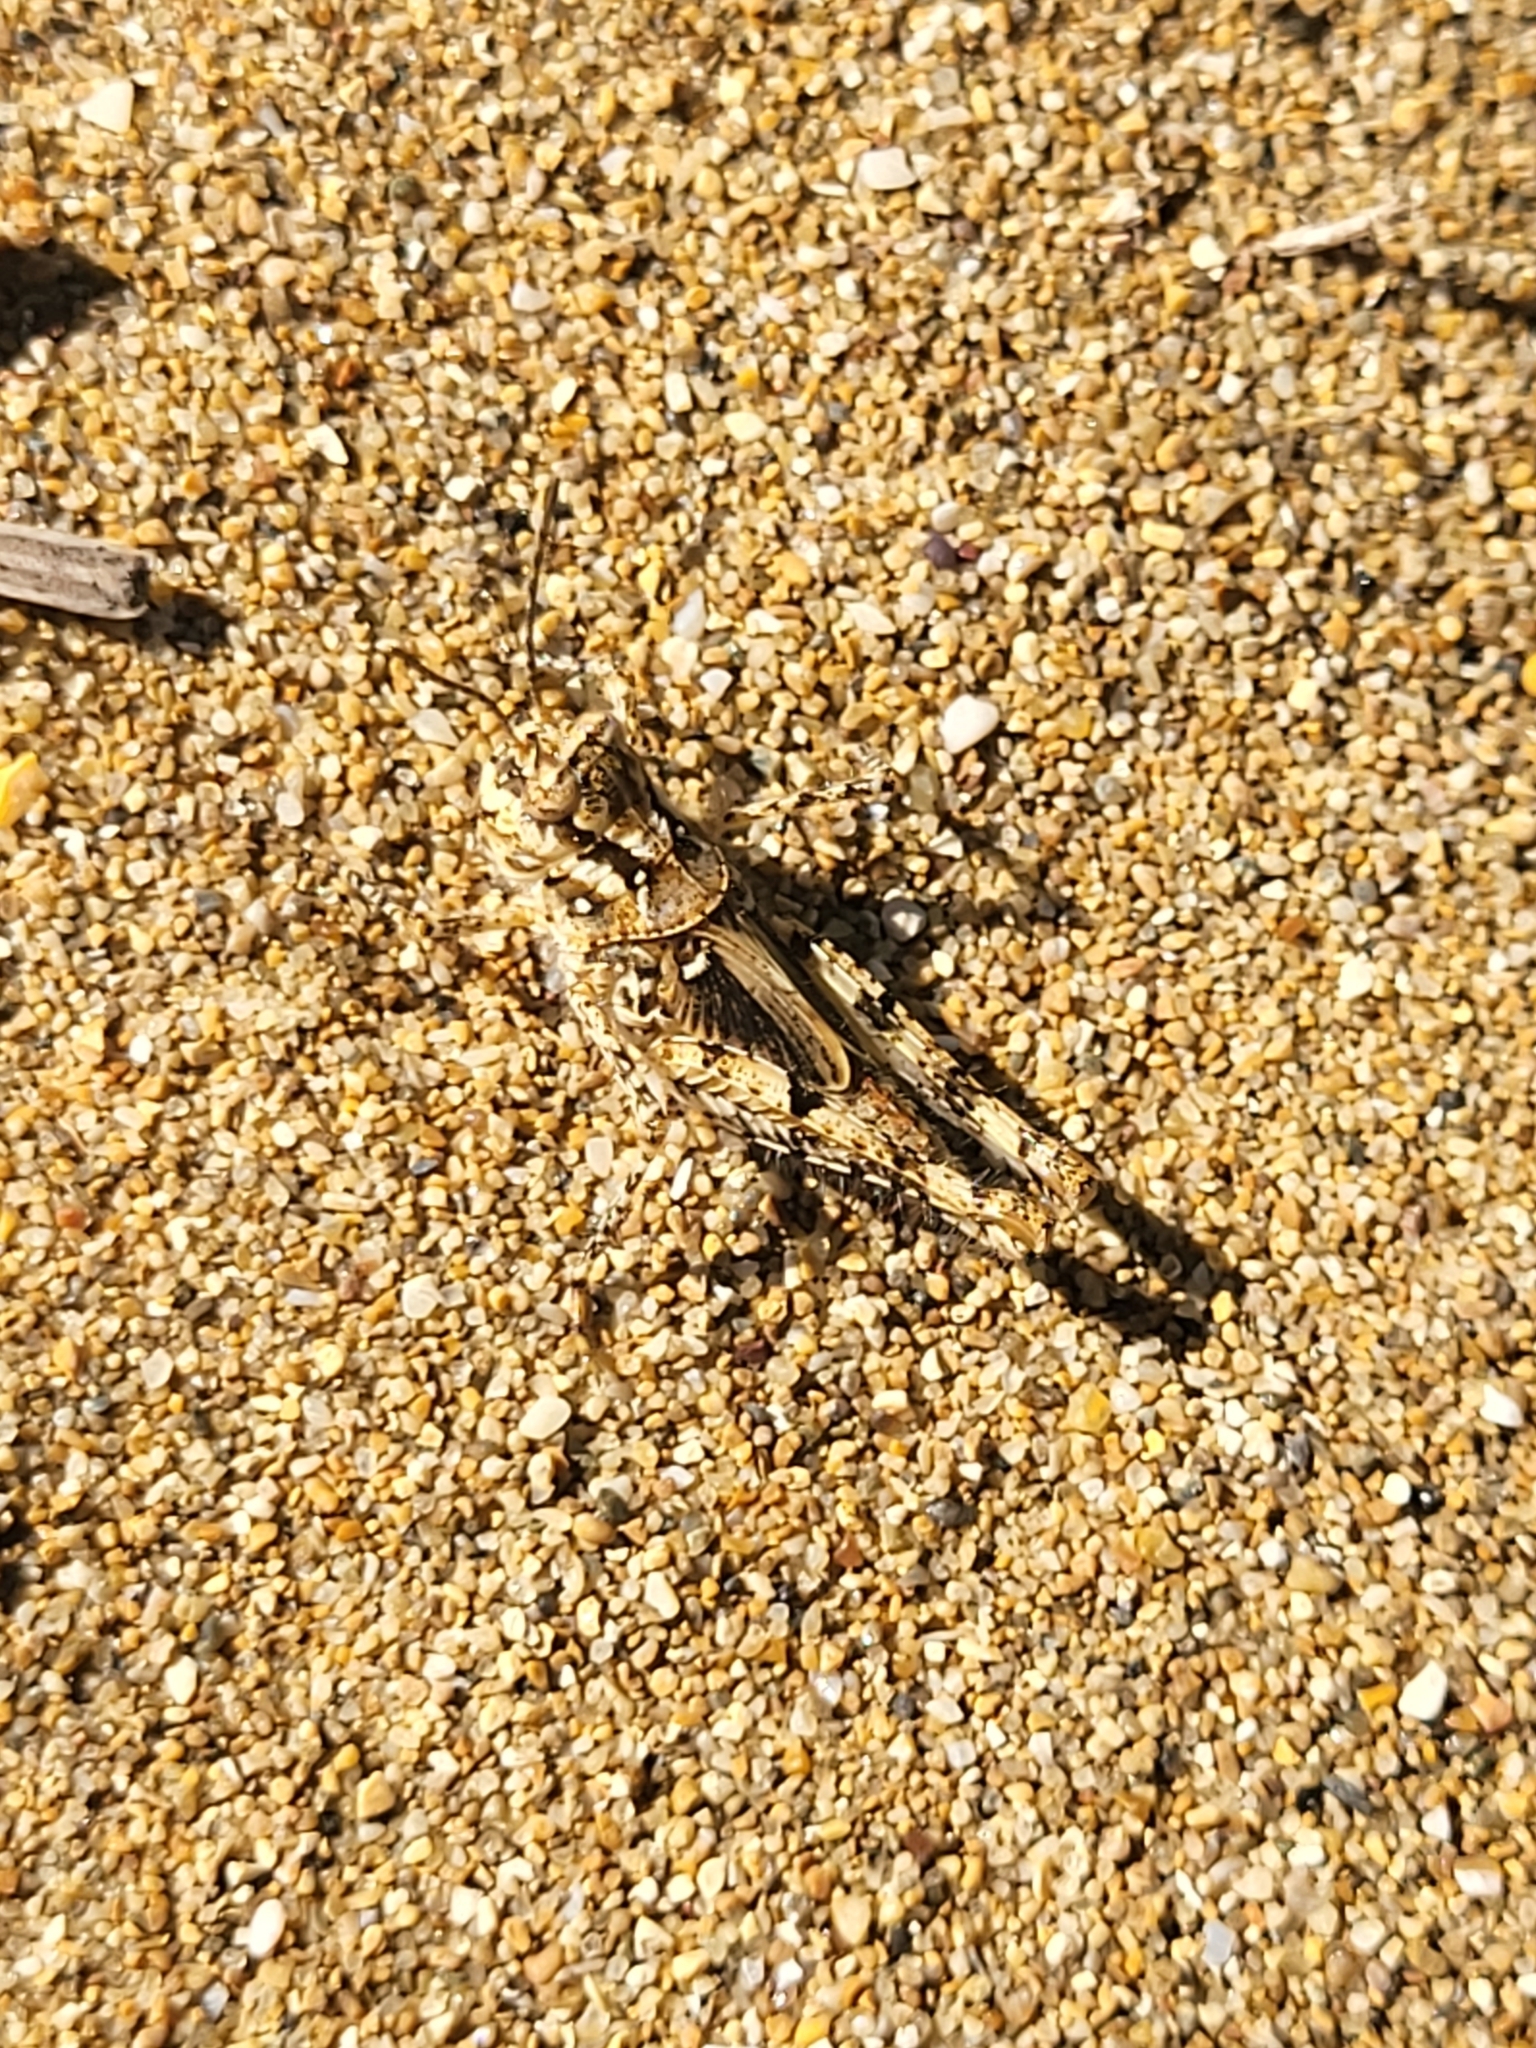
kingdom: Animalia
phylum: Arthropoda
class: Insecta
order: Orthoptera
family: Acrididae
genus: Acrotylus
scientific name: Acrotylus
